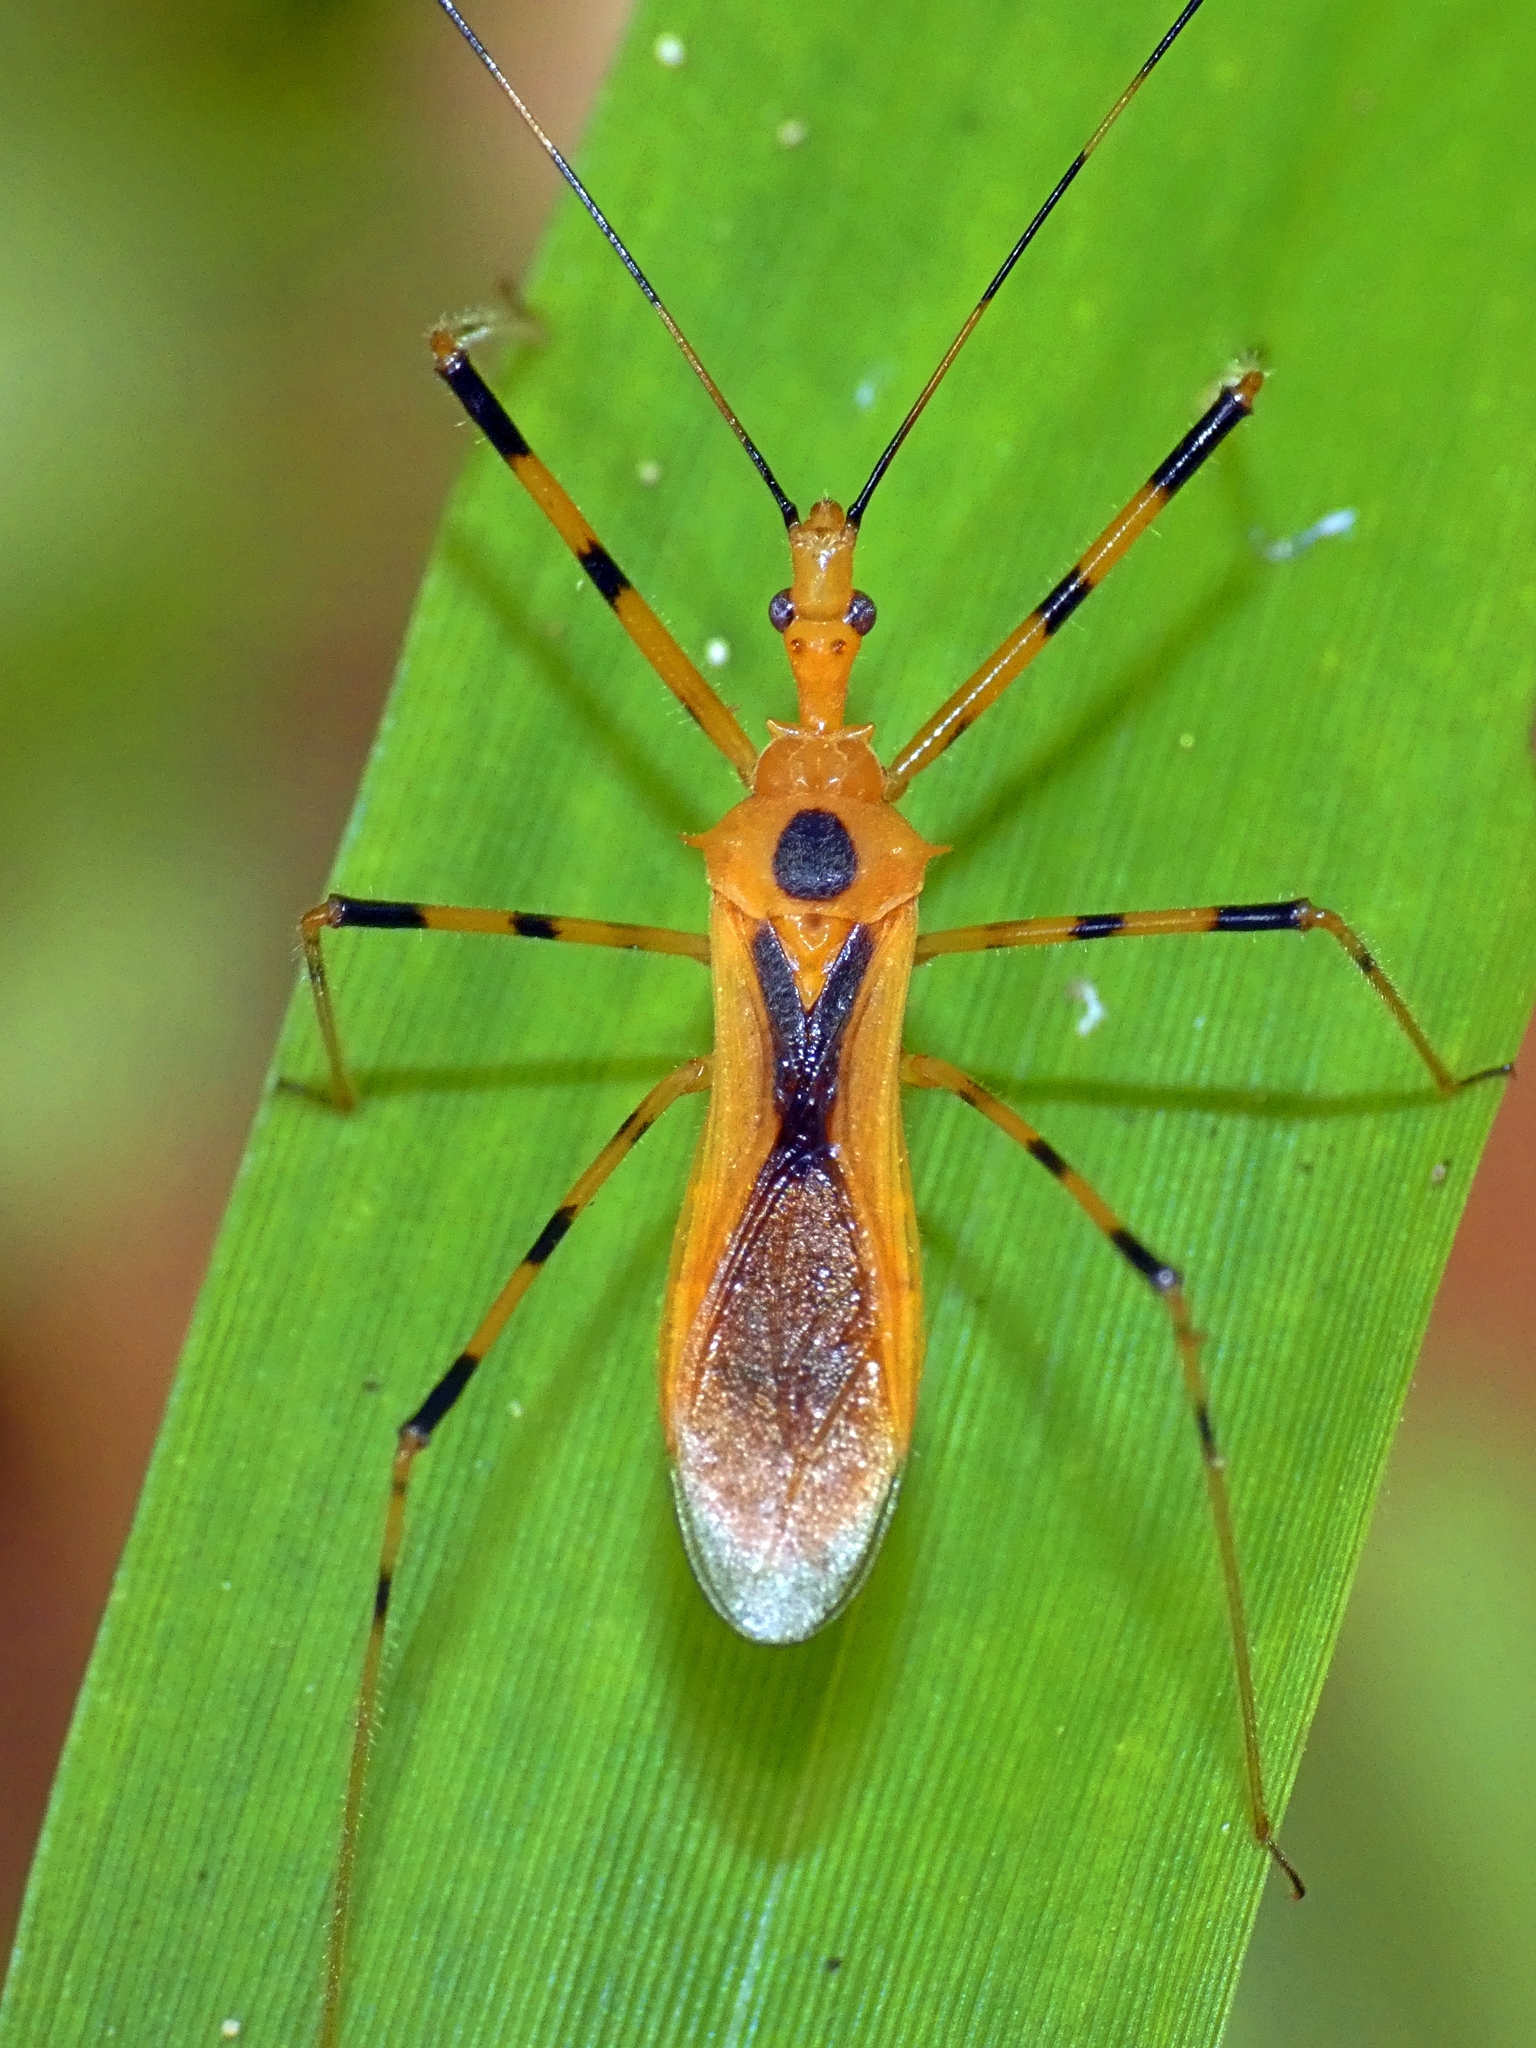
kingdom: Animalia
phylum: Arthropoda
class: Insecta
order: Hemiptera
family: Reduviidae
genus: Euagoras
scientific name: Euagoras dorycus
